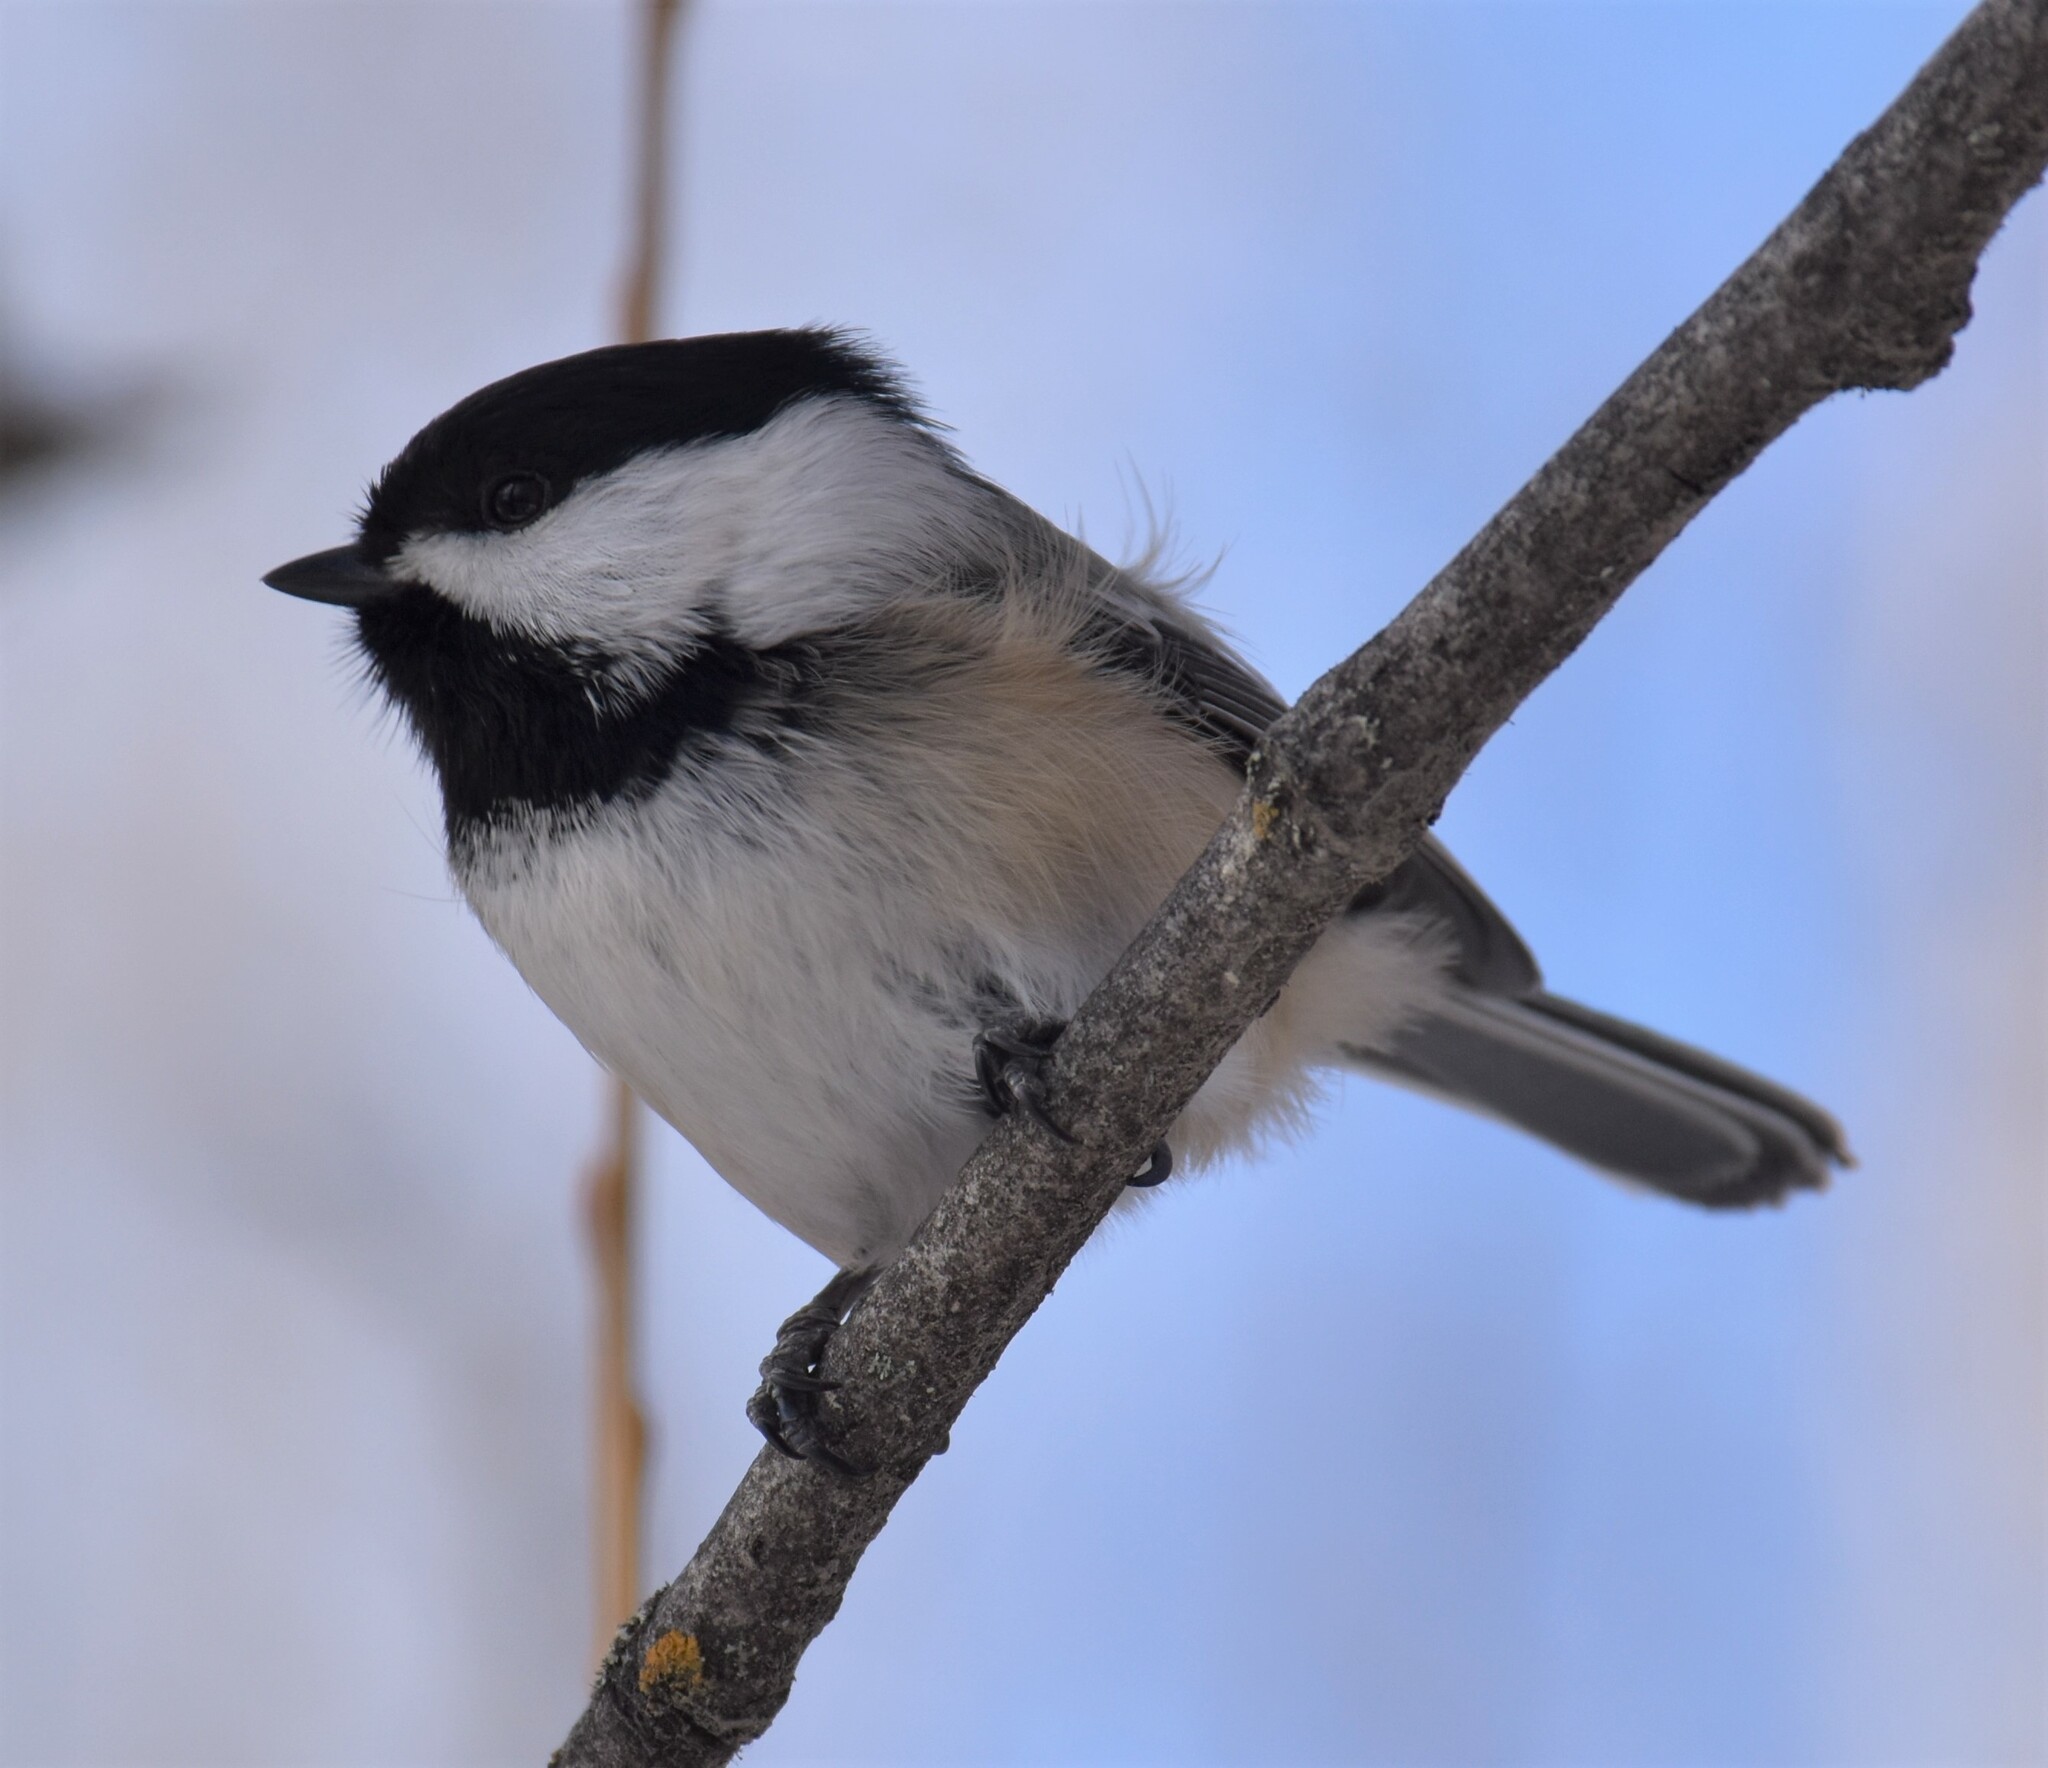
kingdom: Animalia
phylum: Chordata
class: Aves
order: Passeriformes
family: Paridae
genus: Poecile
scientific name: Poecile atricapillus
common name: Black-capped chickadee
